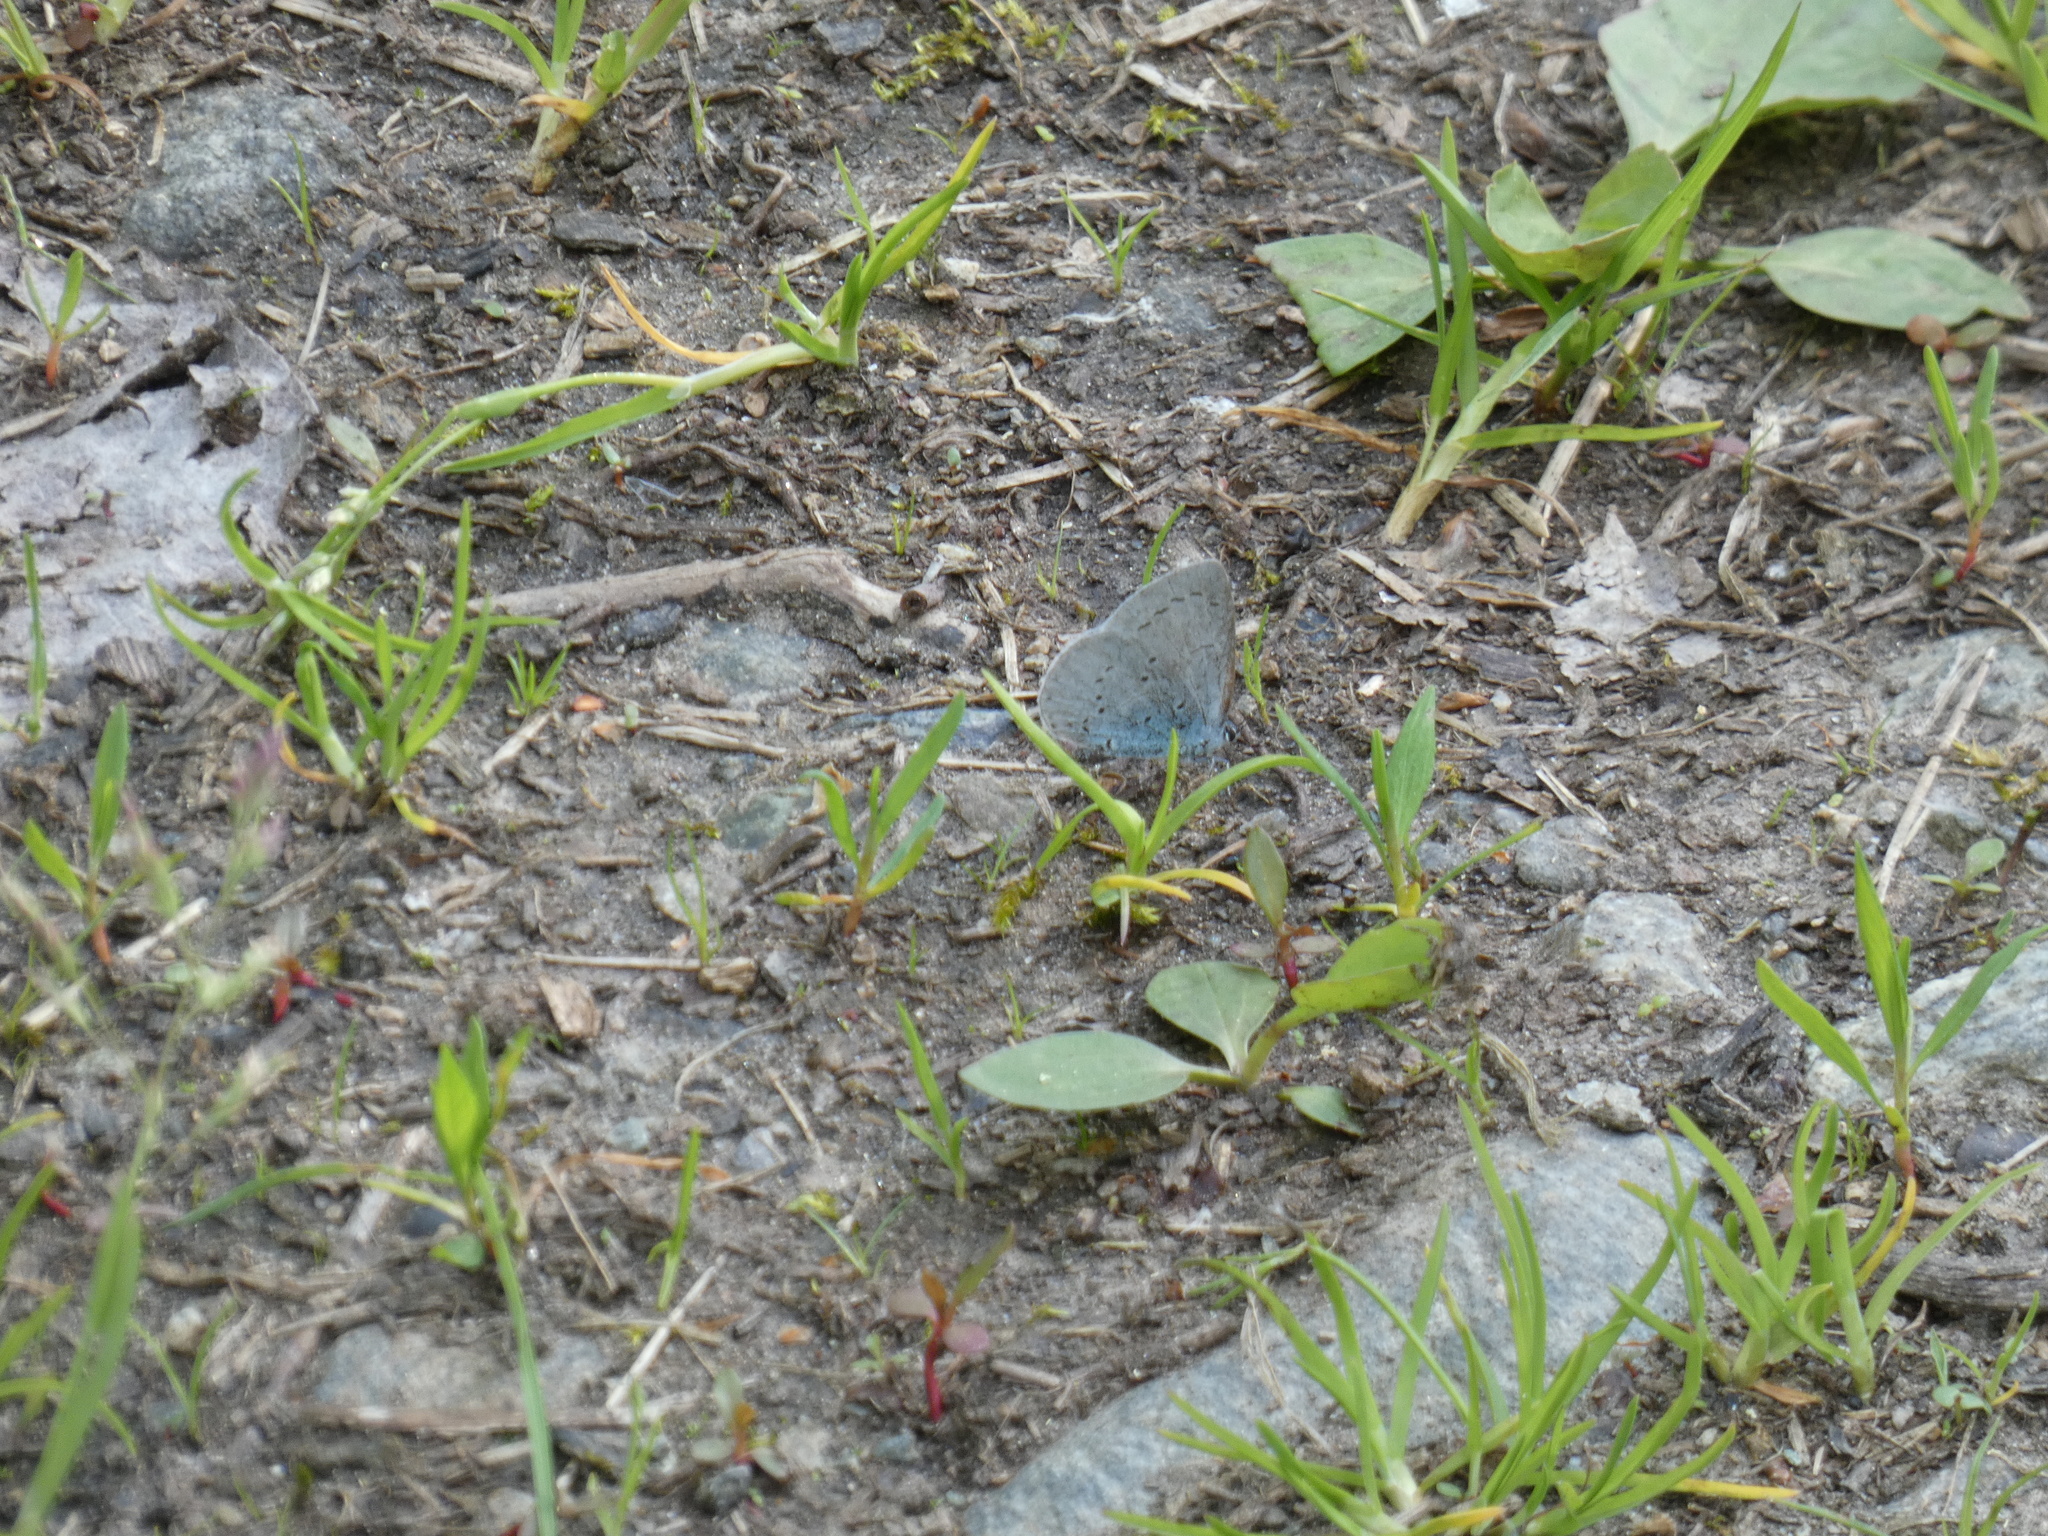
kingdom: Animalia
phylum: Arthropoda
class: Insecta
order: Lepidoptera
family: Lycaenidae
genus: Celastrina
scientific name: Celastrina argiolus
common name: Holly blue
